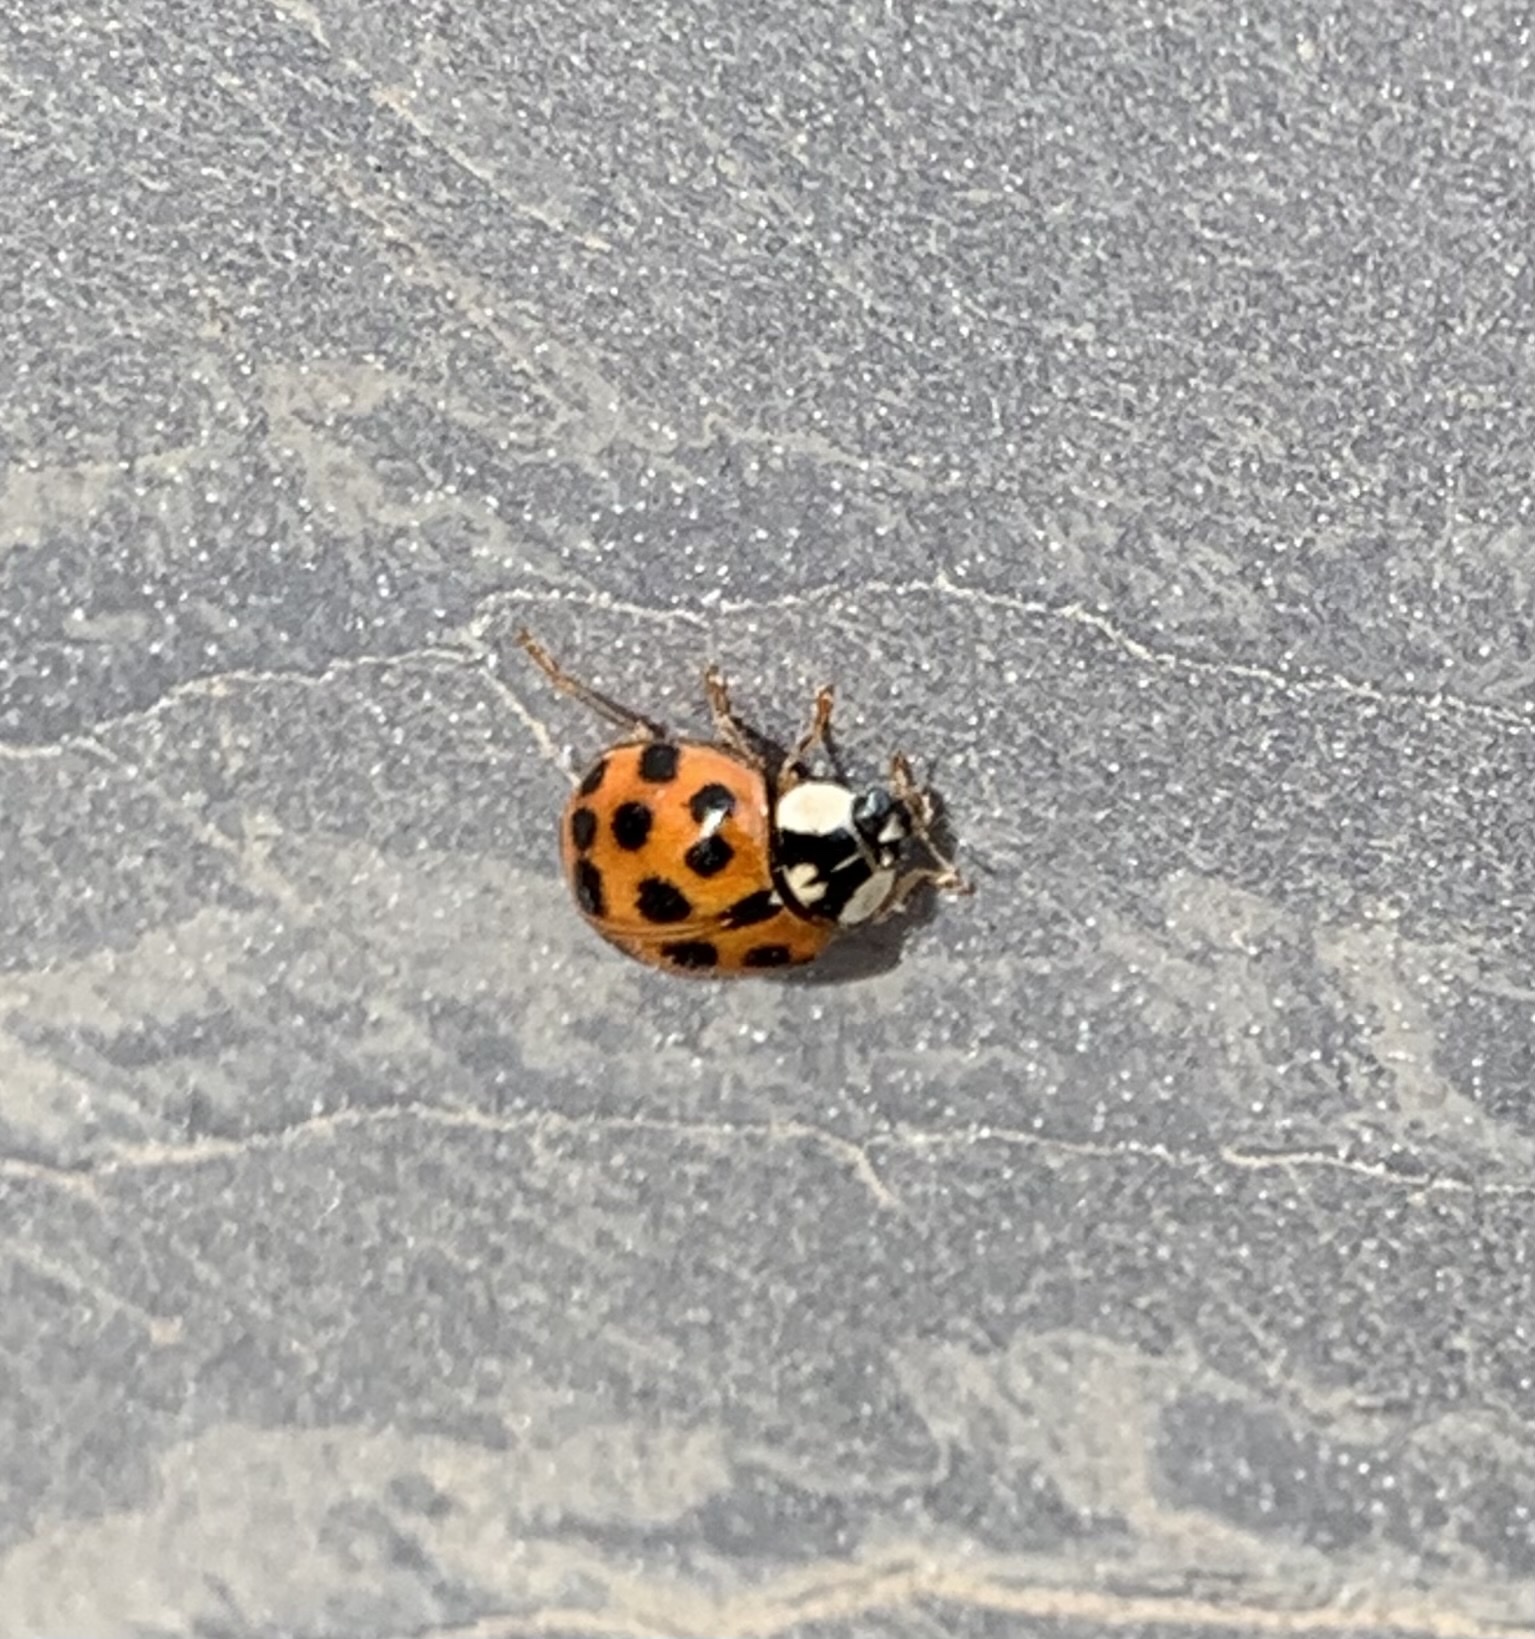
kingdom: Animalia
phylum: Arthropoda
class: Insecta
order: Coleoptera
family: Coccinellidae
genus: Harmonia
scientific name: Harmonia axyridis
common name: Harlequin ladybird
